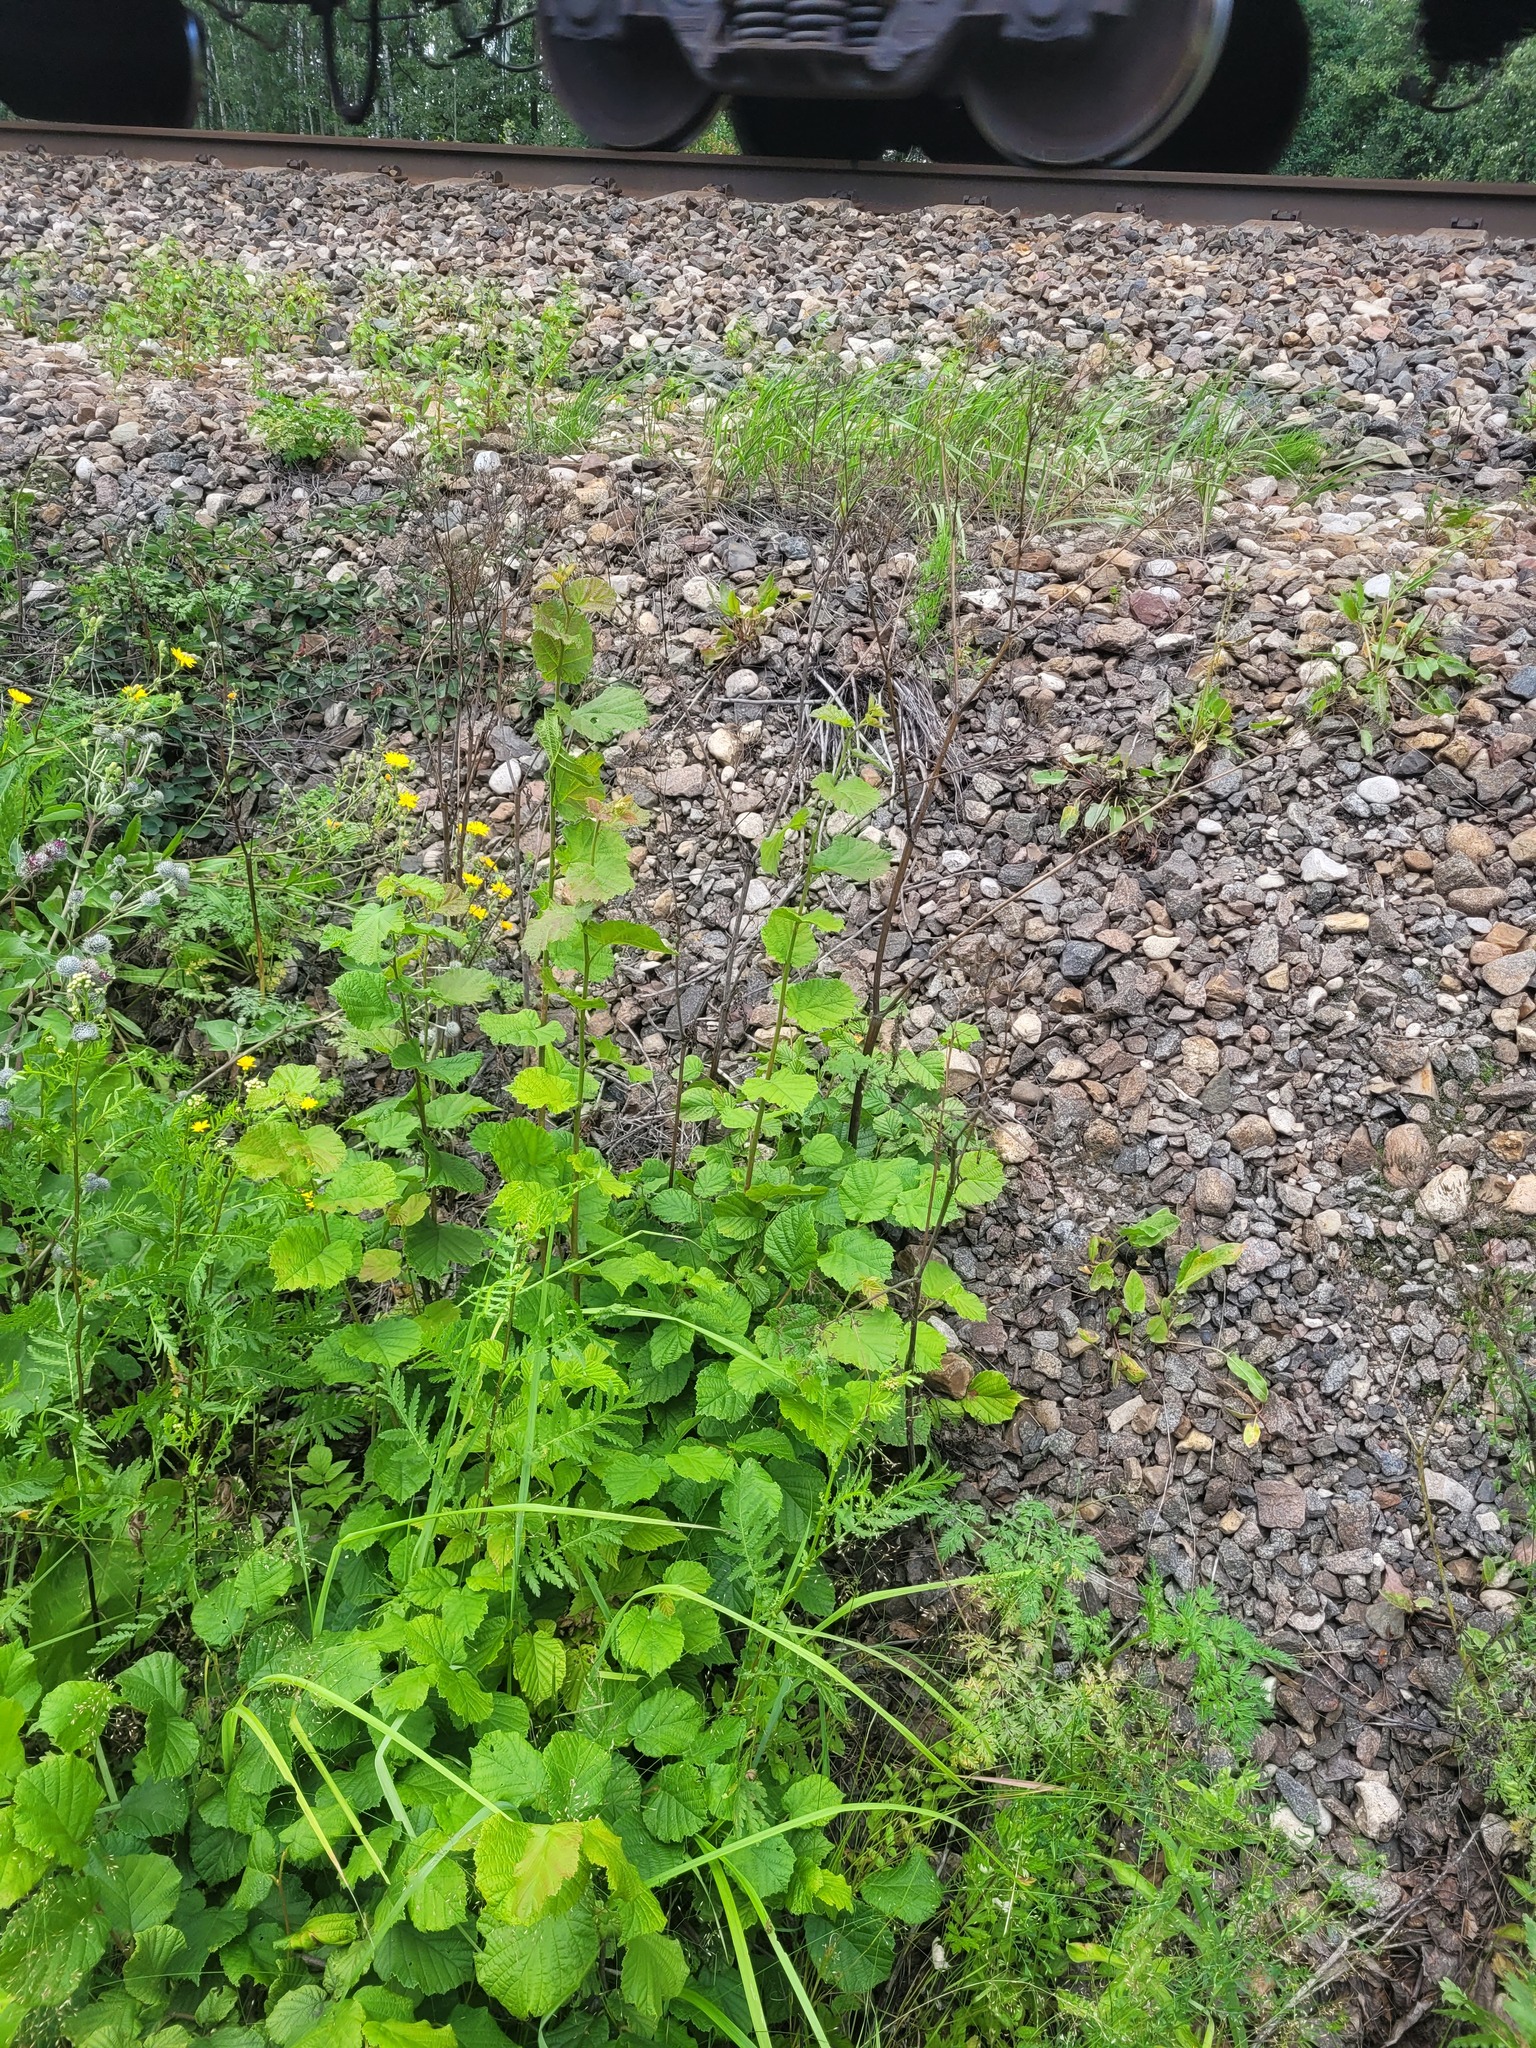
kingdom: Plantae
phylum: Tracheophyta
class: Magnoliopsida
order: Fagales
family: Betulaceae
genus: Corylus
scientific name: Corylus avellana
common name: European hazel
